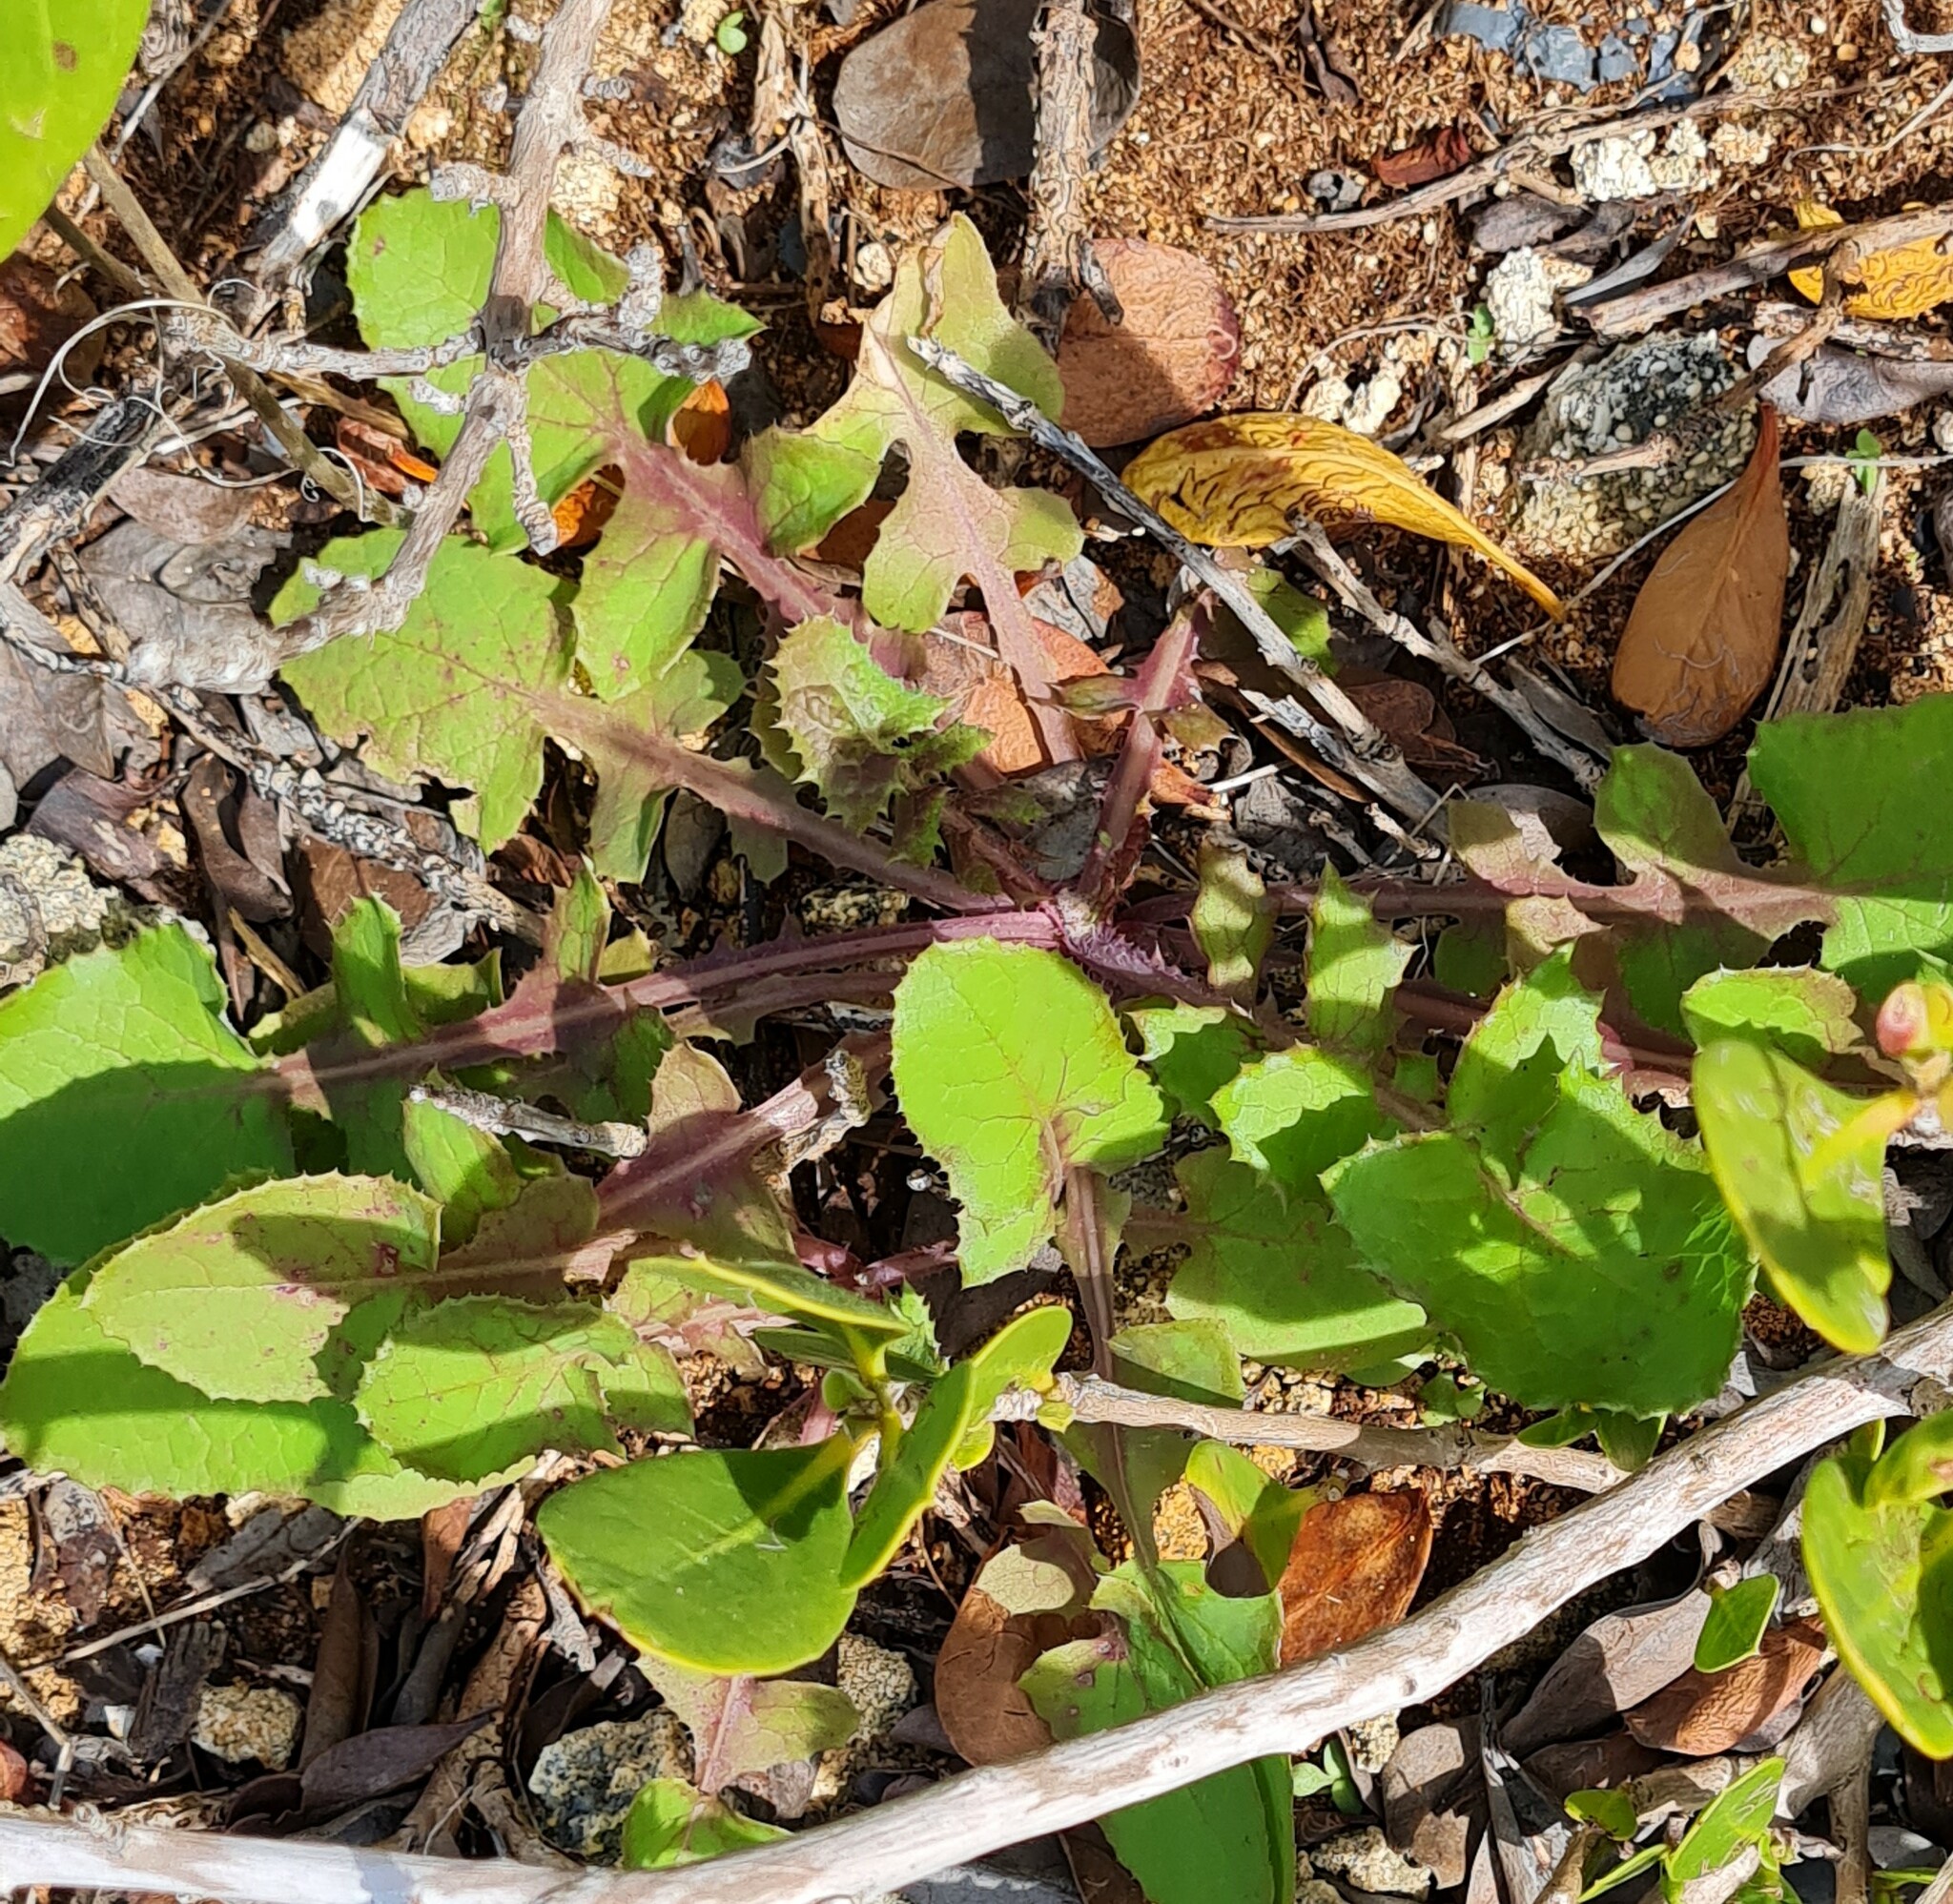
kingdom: Plantae
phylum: Tracheophyta
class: Magnoliopsida
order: Asterales
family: Asteraceae
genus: Sonchus
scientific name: Sonchus oleraceus
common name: Common sowthistle
